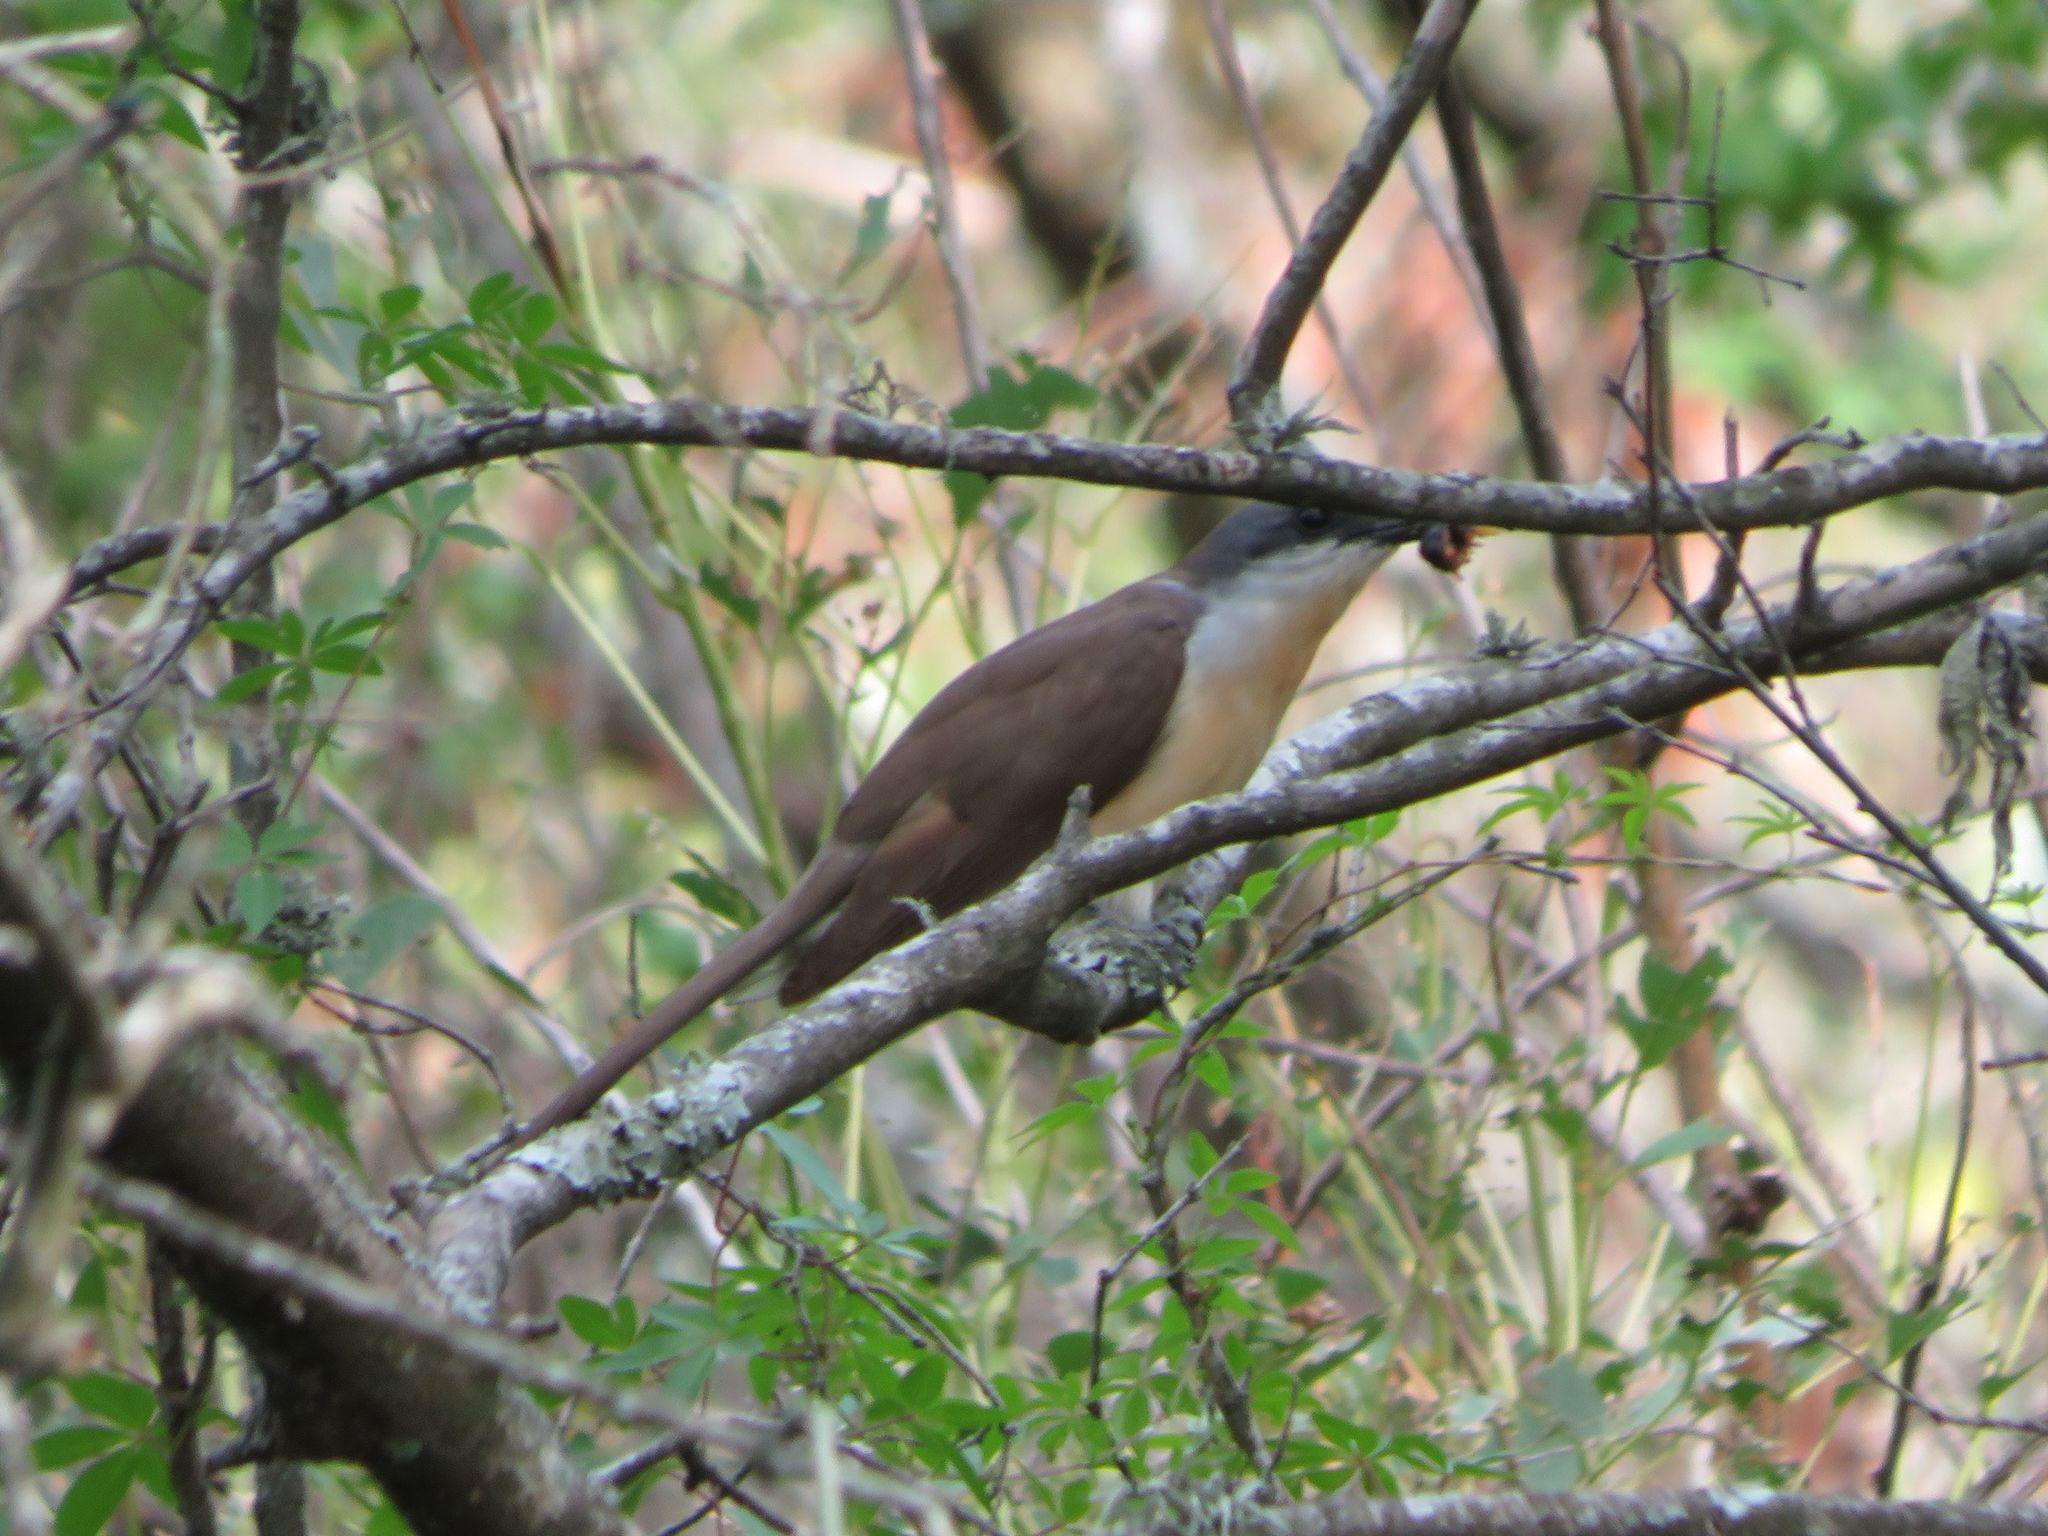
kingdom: Animalia
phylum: Chordata
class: Aves
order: Cuculiformes
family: Cuculidae
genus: Coccyzus
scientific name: Coccyzus melacoryphus
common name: Dark-billed cuckoo
